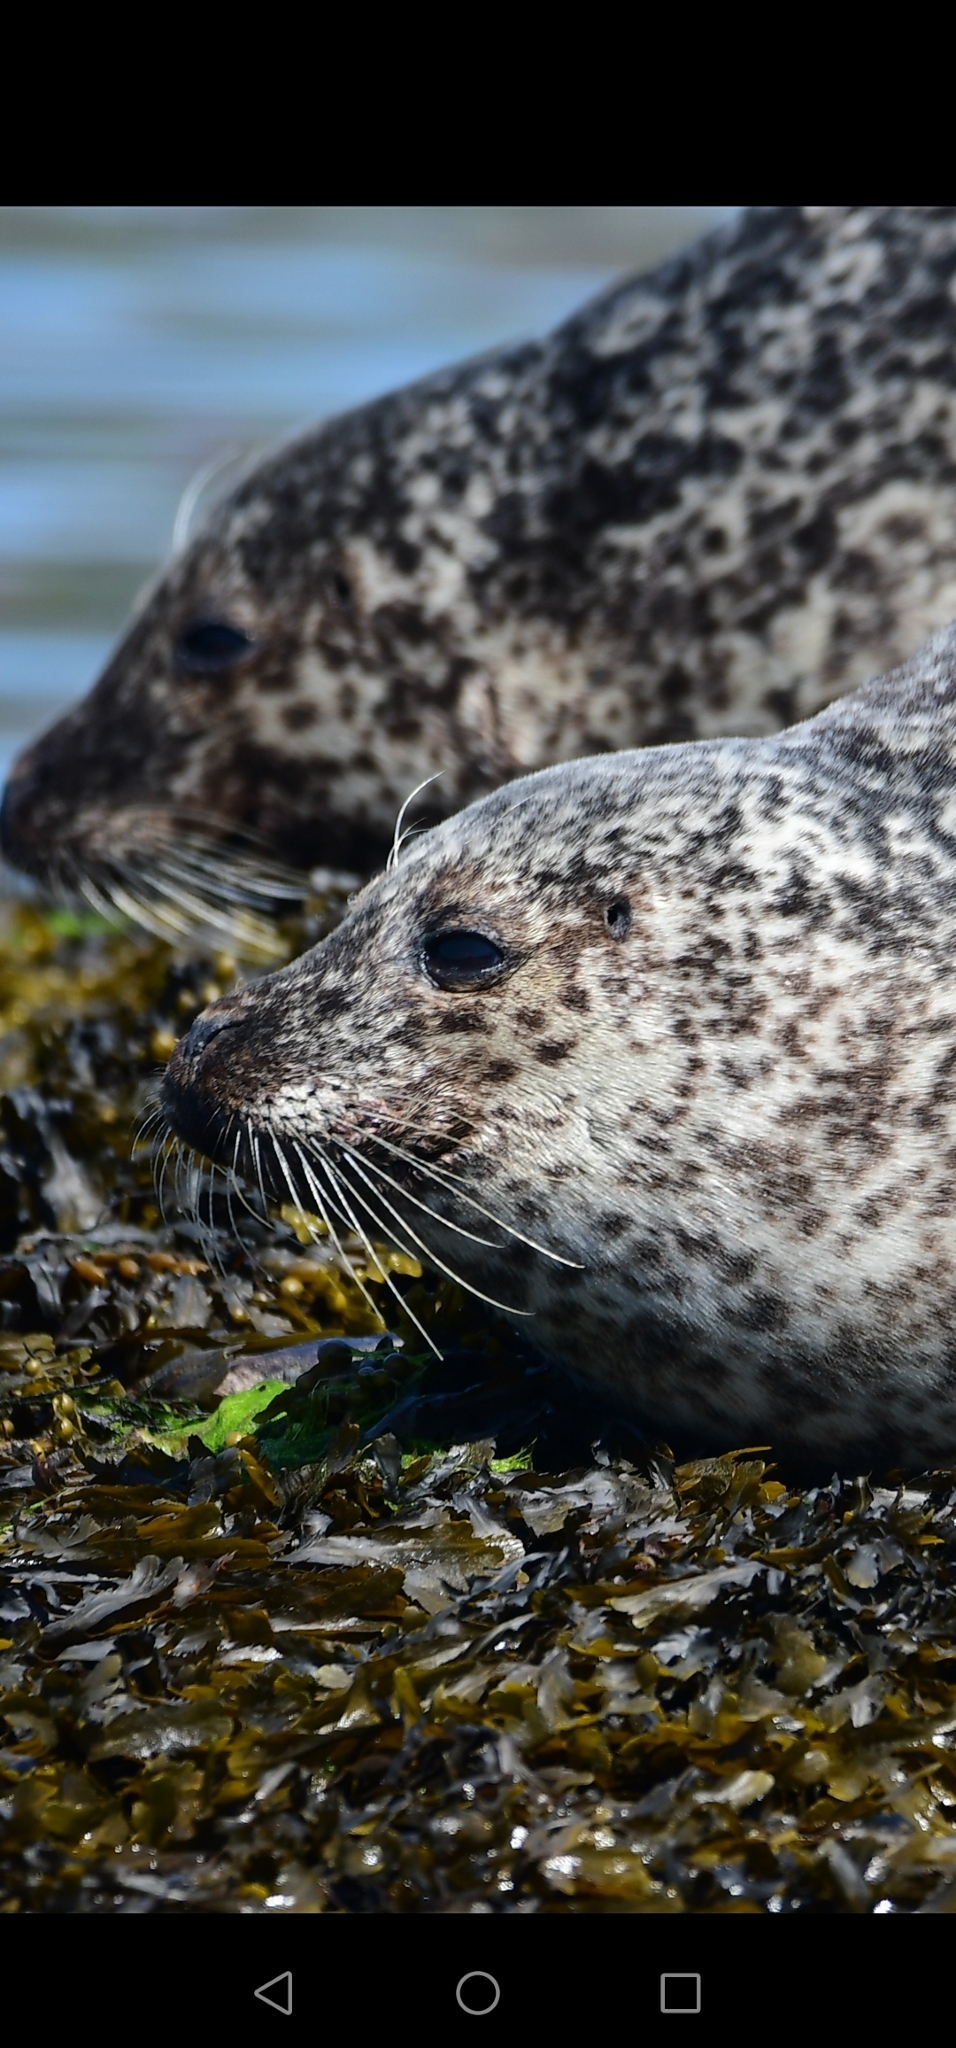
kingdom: Animalia
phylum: Chordata
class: Mammalia
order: Carnivora
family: Phocidae
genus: Phoca
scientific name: Phoca vitulina
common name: Harbor seal
